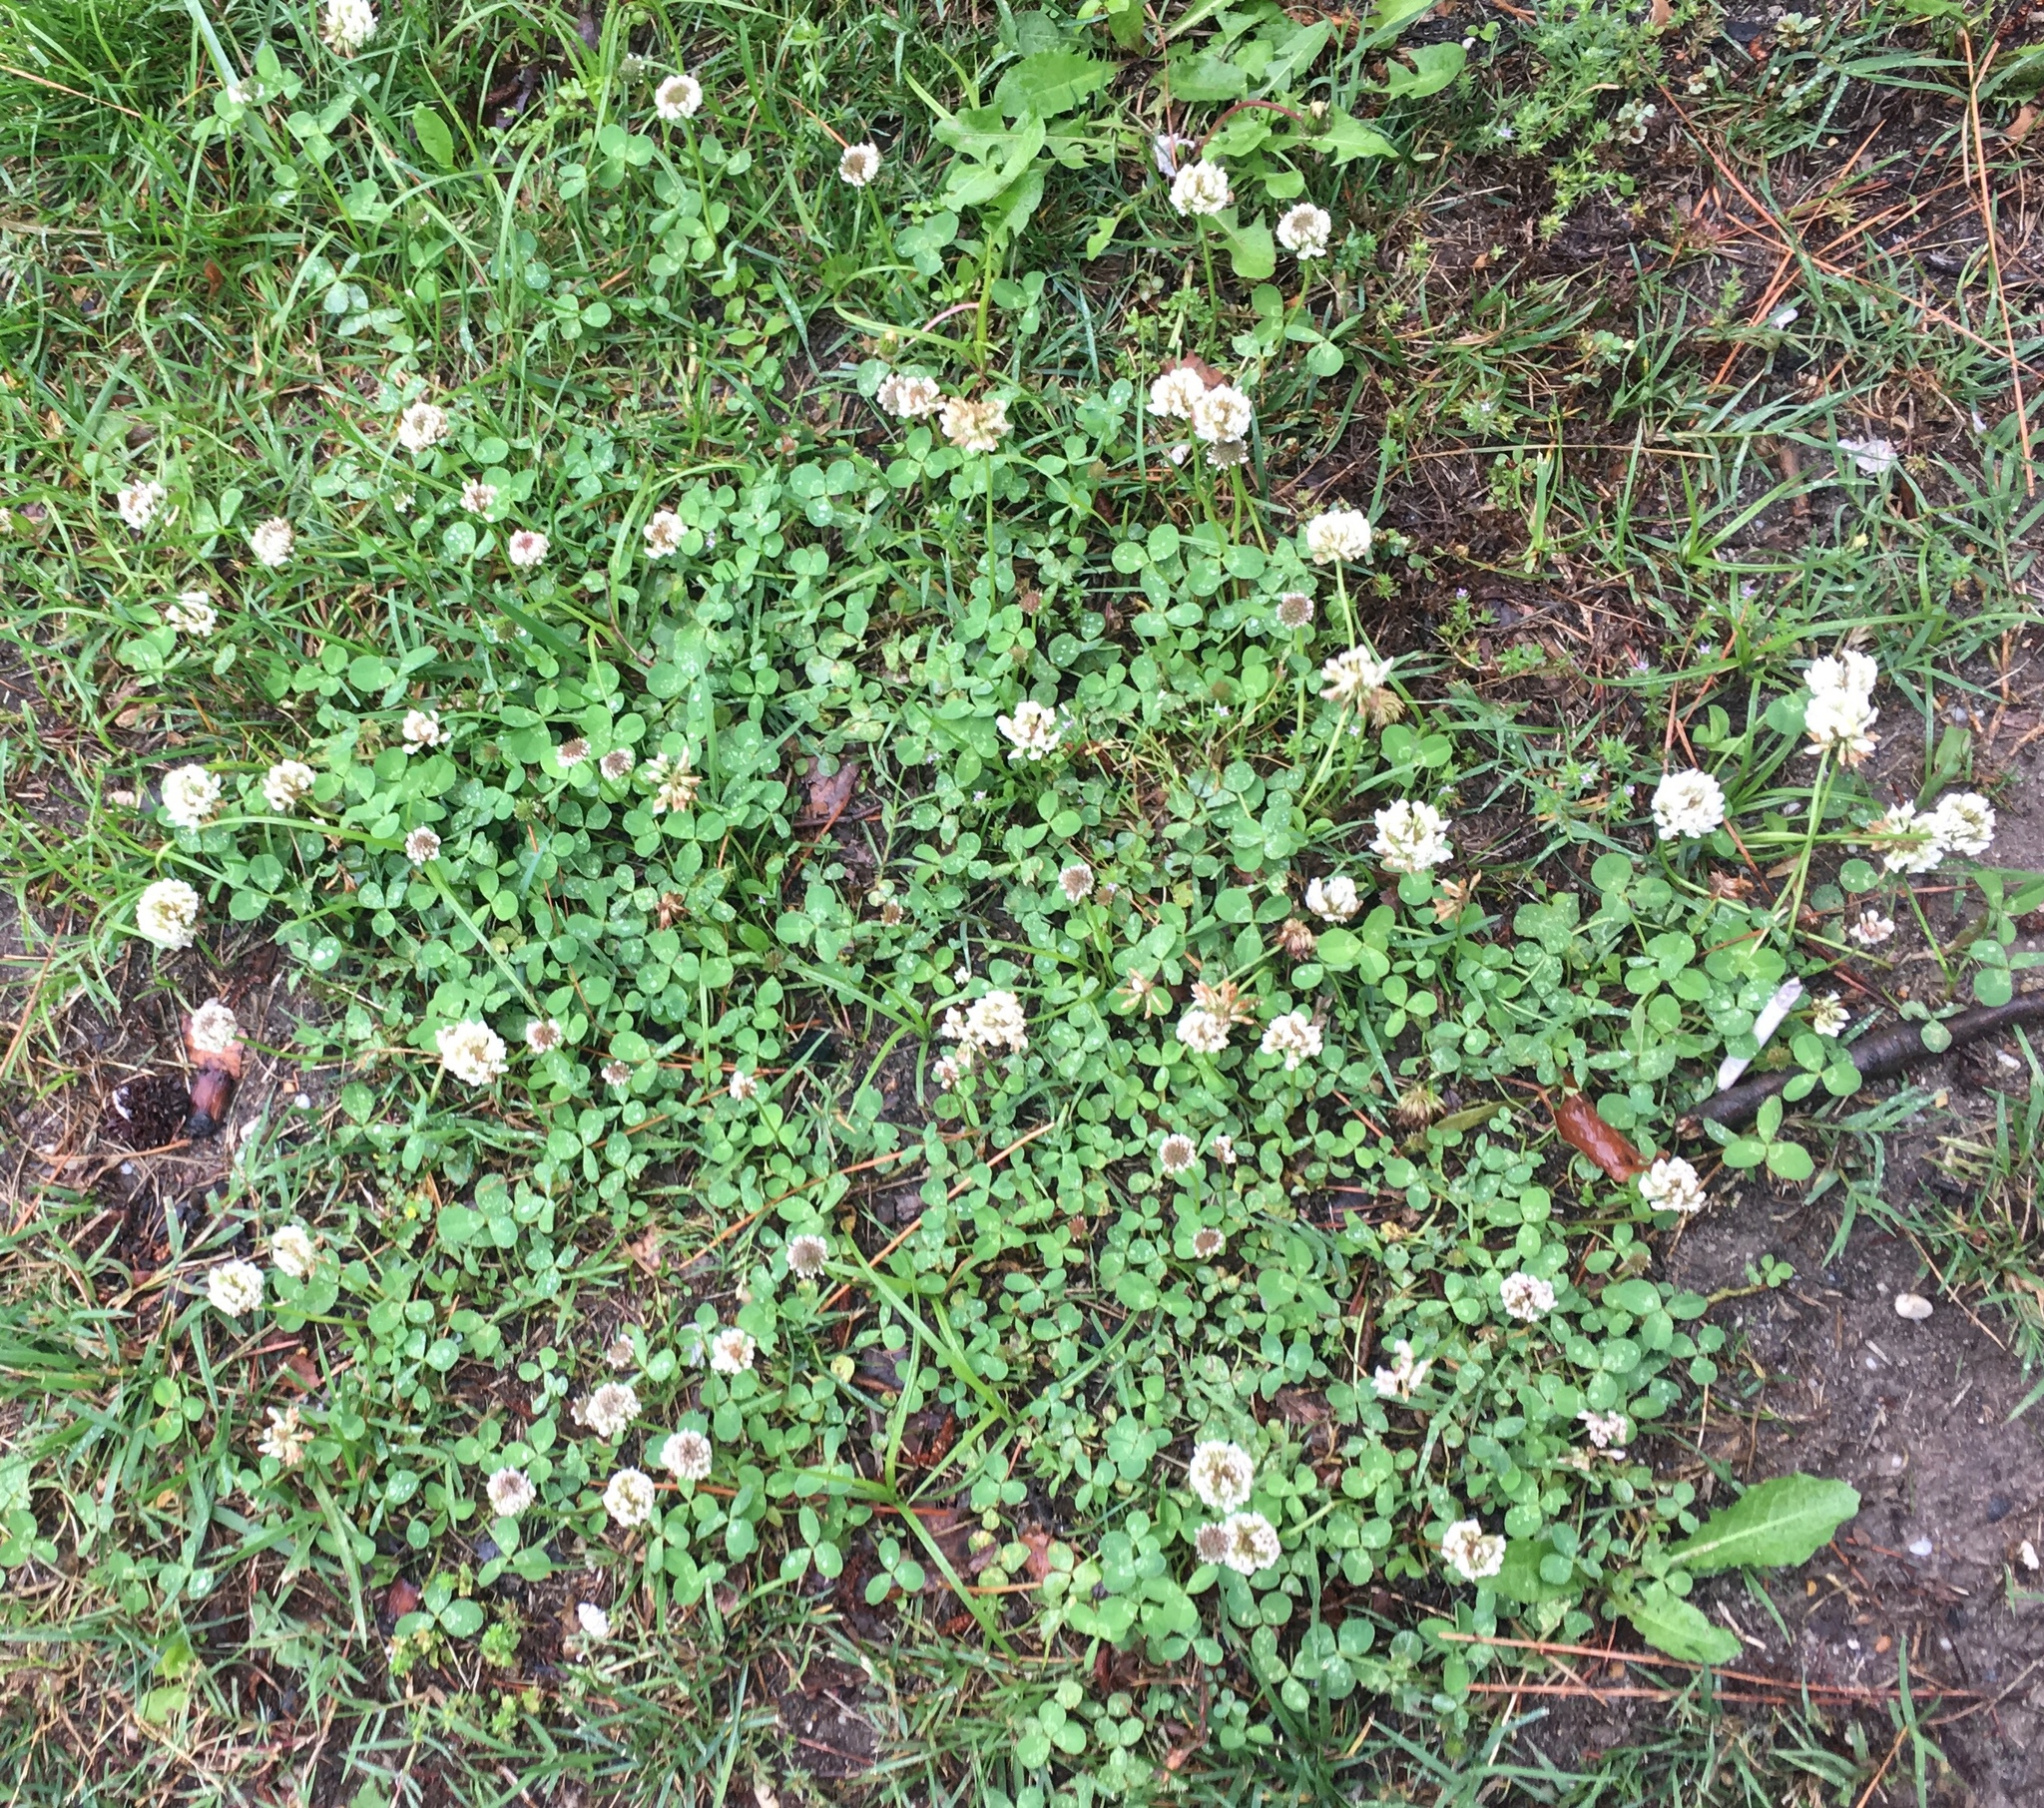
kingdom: Plantae
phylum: Tracheophyta
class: Magnoliopsida
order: Fabales
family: Fabaceae
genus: Trifolium
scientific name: Trifolium repens
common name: White clover
